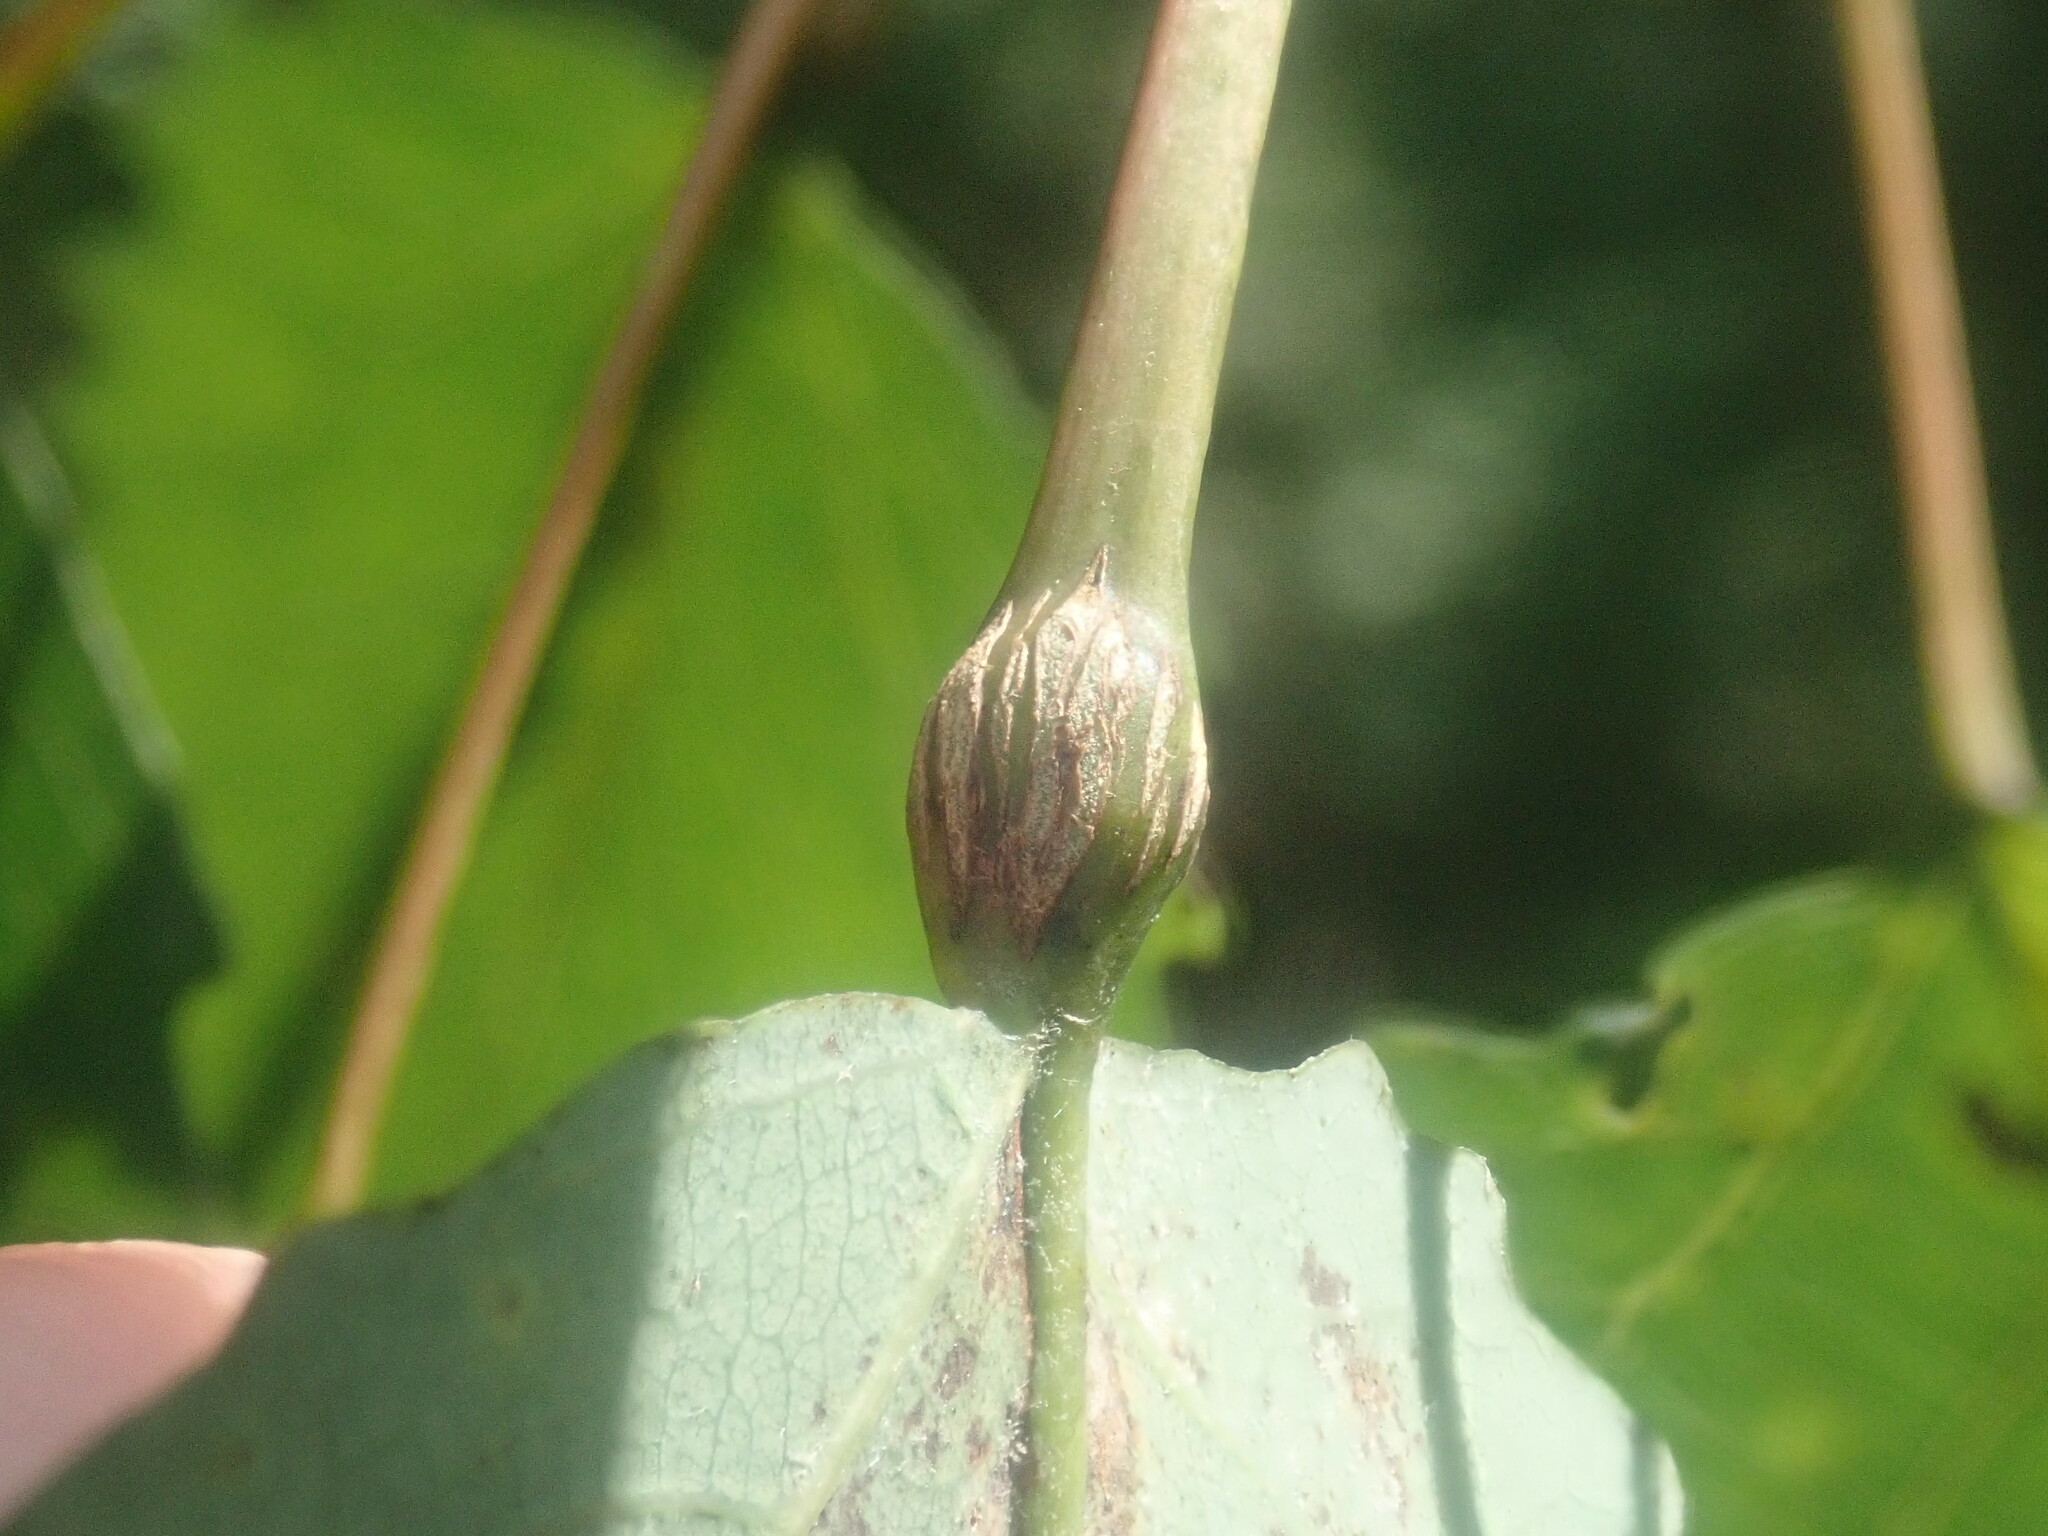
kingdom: Animalia
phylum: Arthropoda
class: Insecta
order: Lepidoptera
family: Nepticulidae
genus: Ectoedemia
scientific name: Ectoedemia populella
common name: Aspen petiole gall moth
